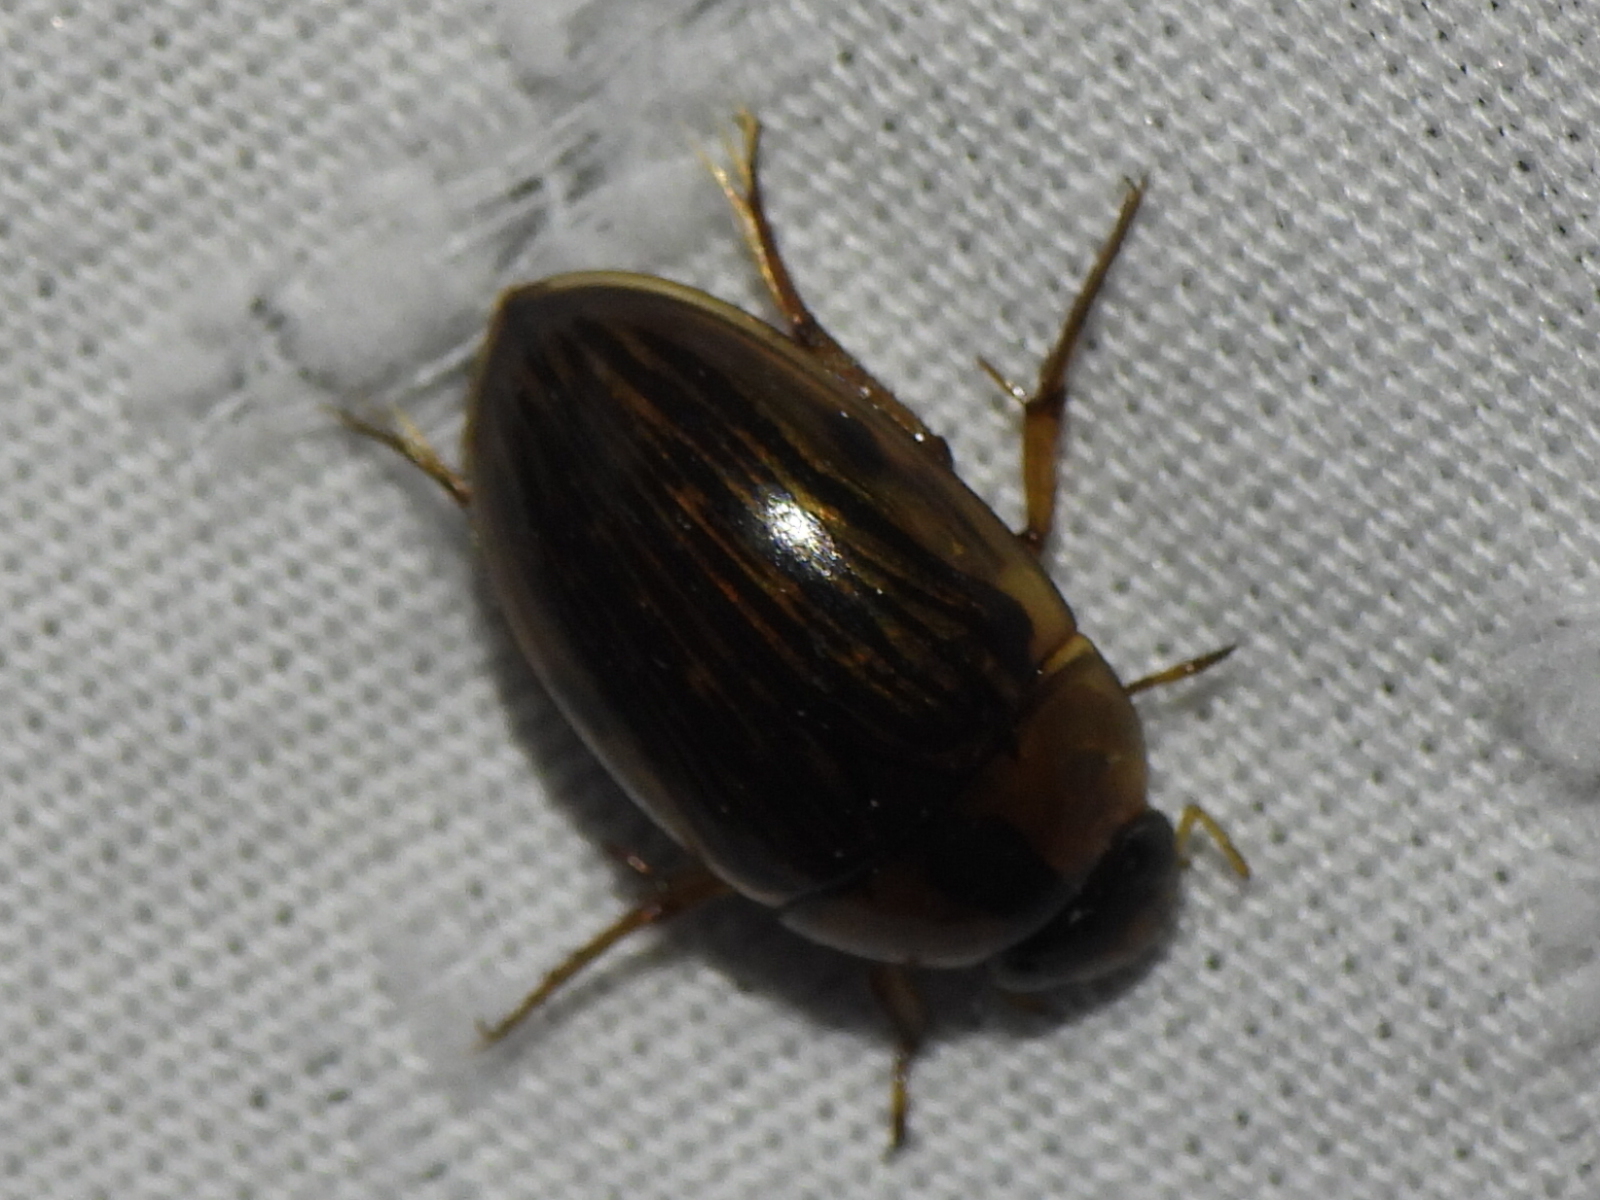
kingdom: Animalia
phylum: Arthropoda
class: Insecta
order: Coleoptera
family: Hydrophilidae
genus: Tropisternus
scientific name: Tropisternus collaris
